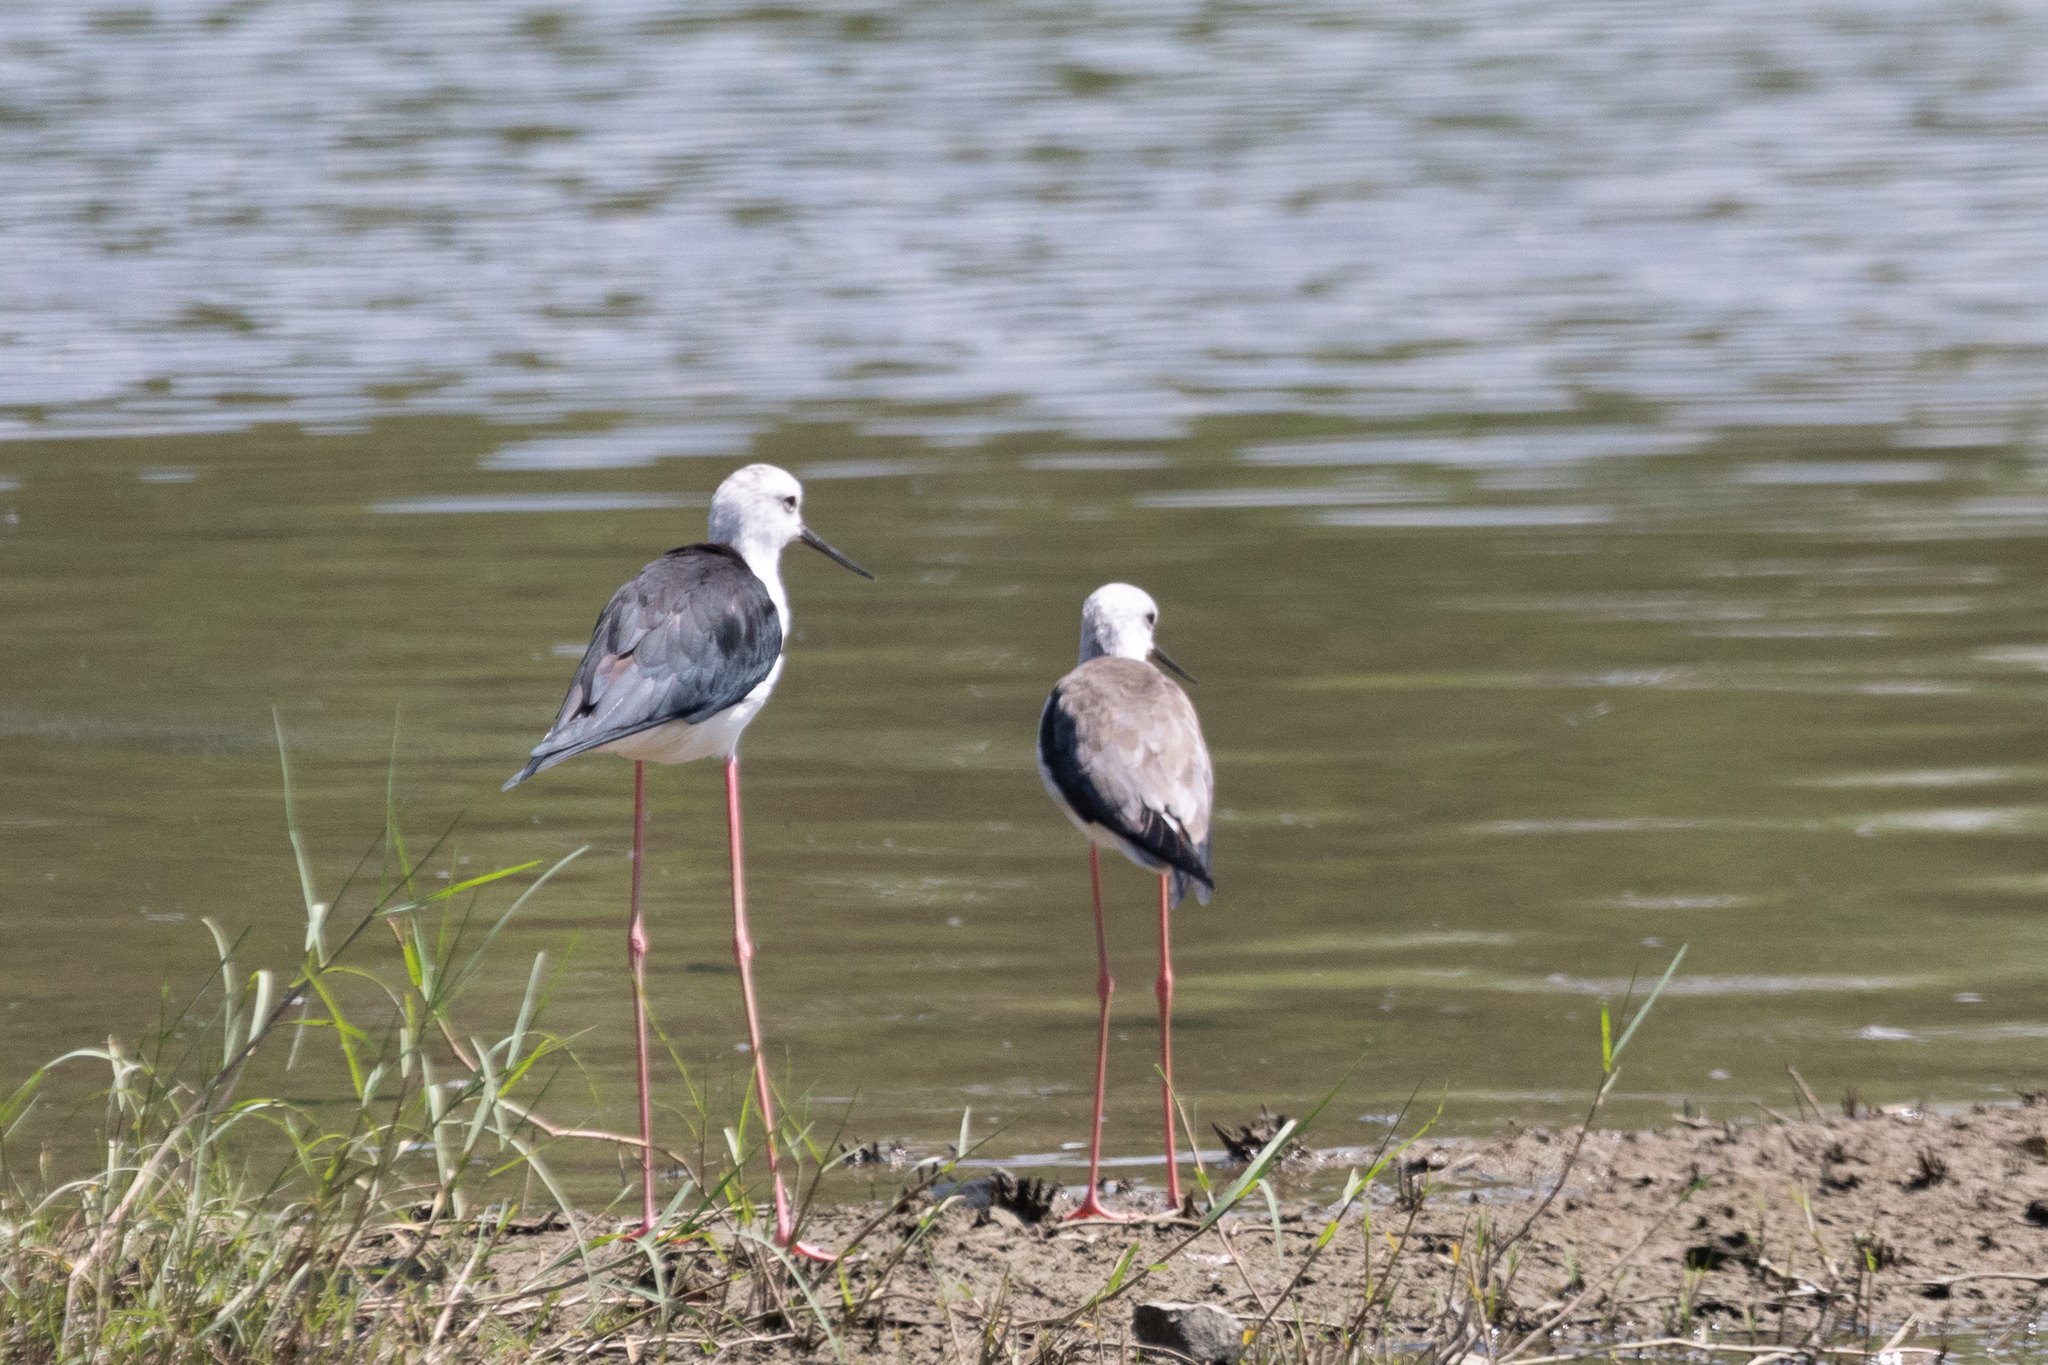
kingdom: Animalia
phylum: Chordata
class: Aves
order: Charadriiformes
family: Recurvirostridae
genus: Himantopus
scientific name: Himantopus himantopus
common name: Black-winged stilt
